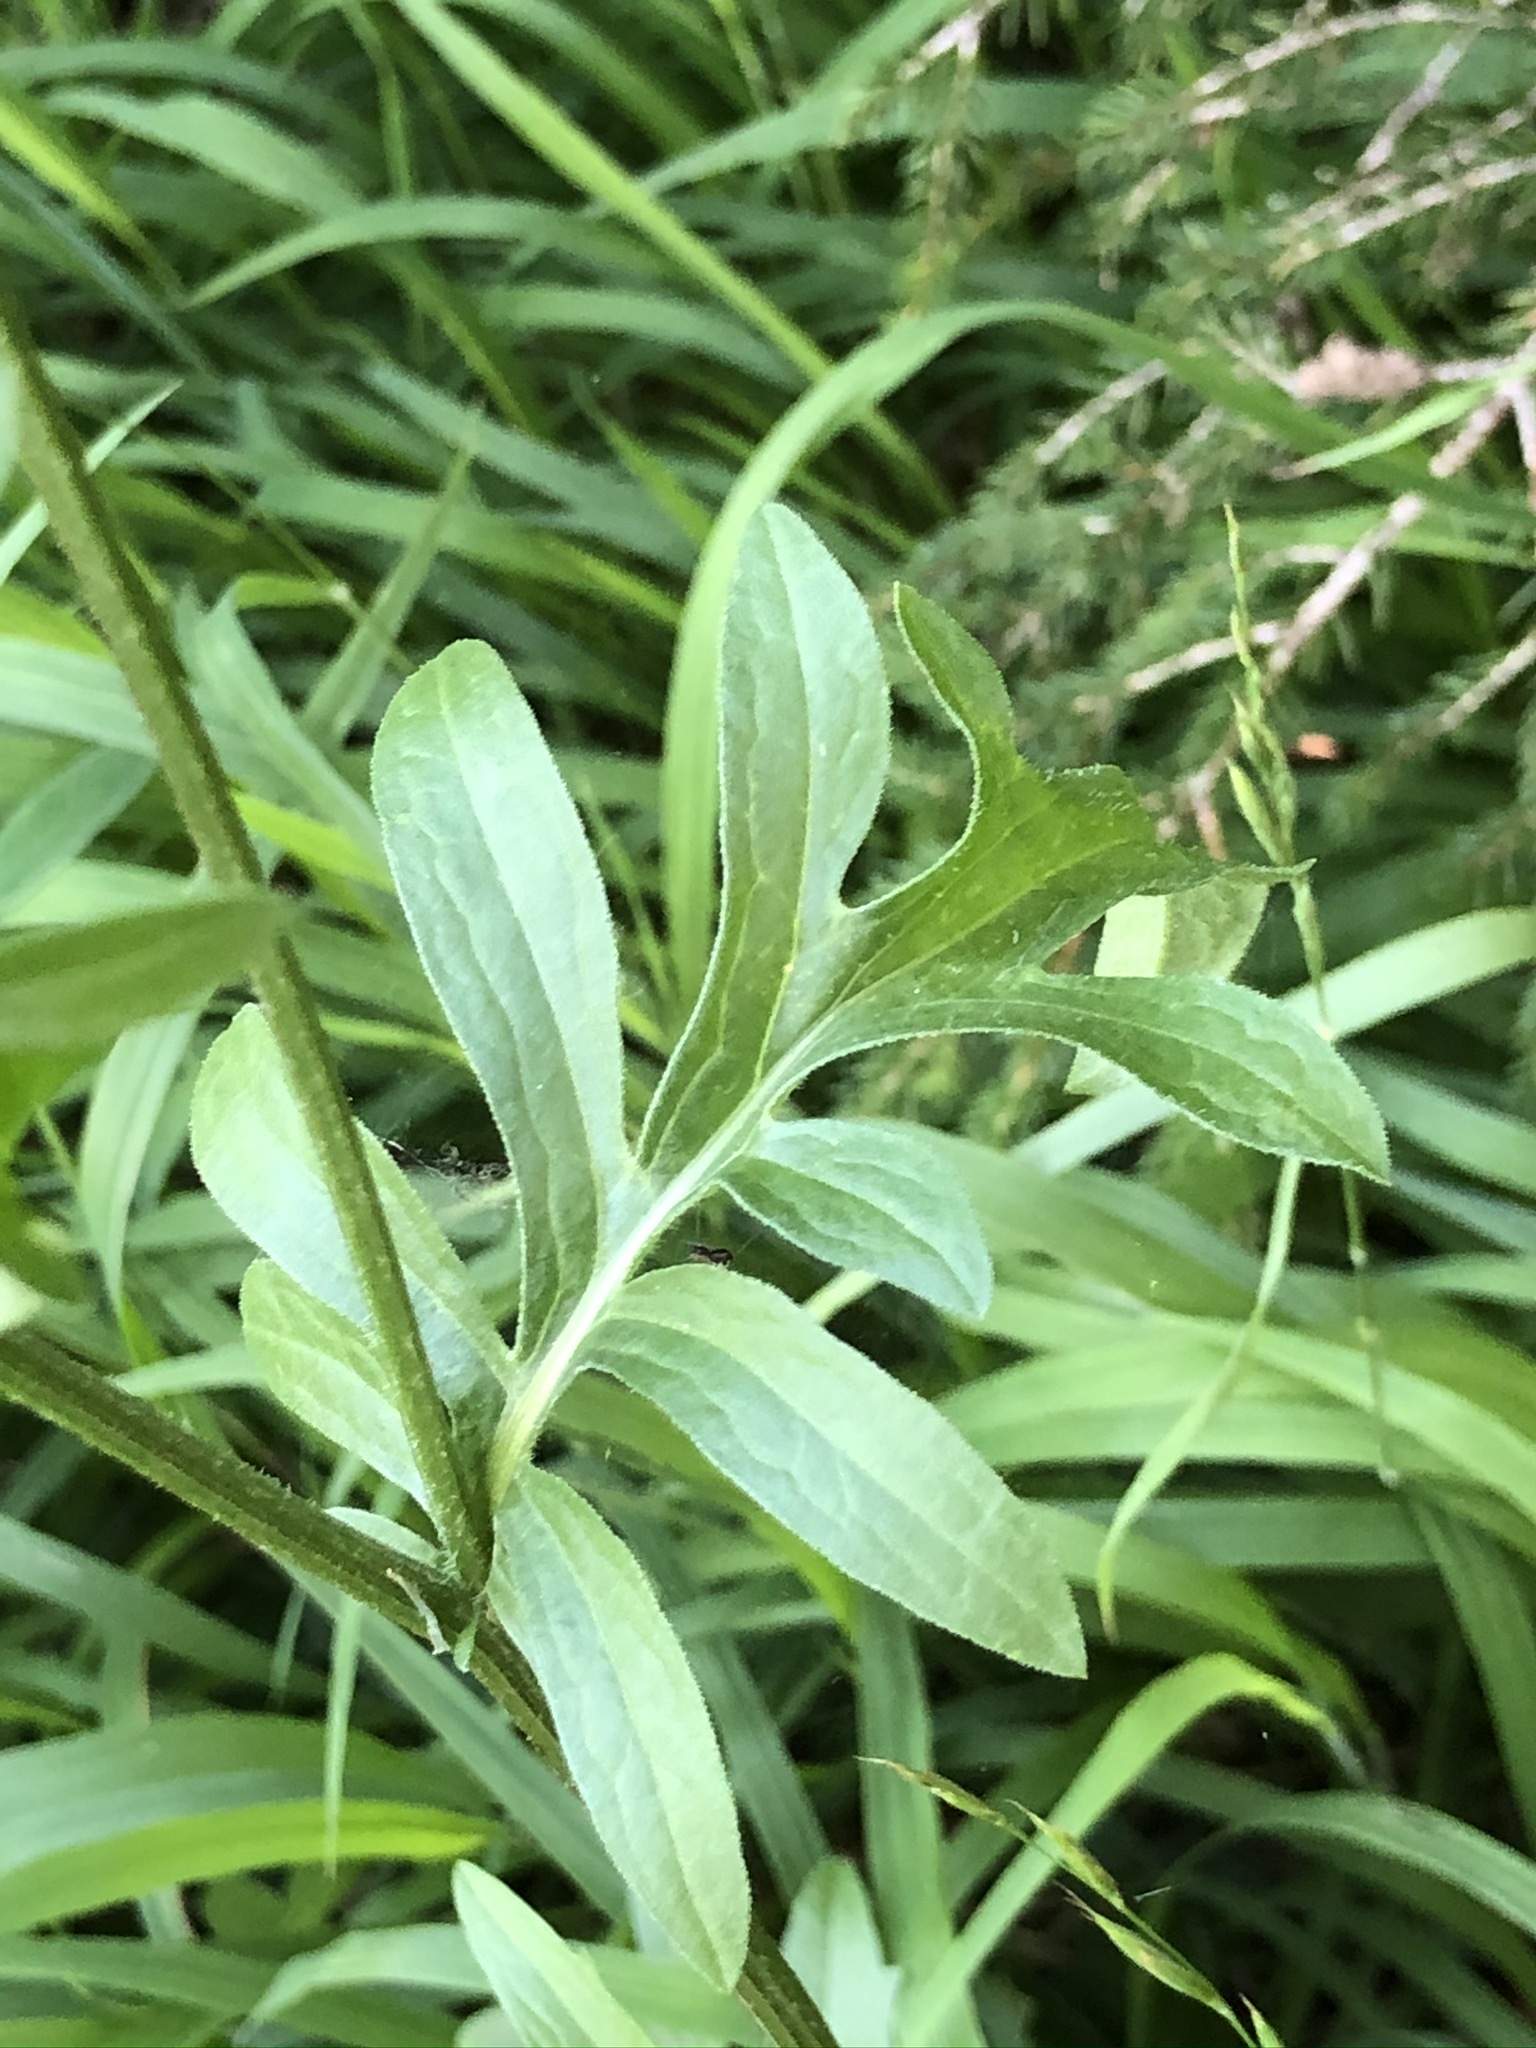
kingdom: Plantae
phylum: Tracheophyta
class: Magnoliopsida
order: Asterales
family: Asteraceae
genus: Centaurea
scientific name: Centaurea scabiosa
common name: Greater knapweed
